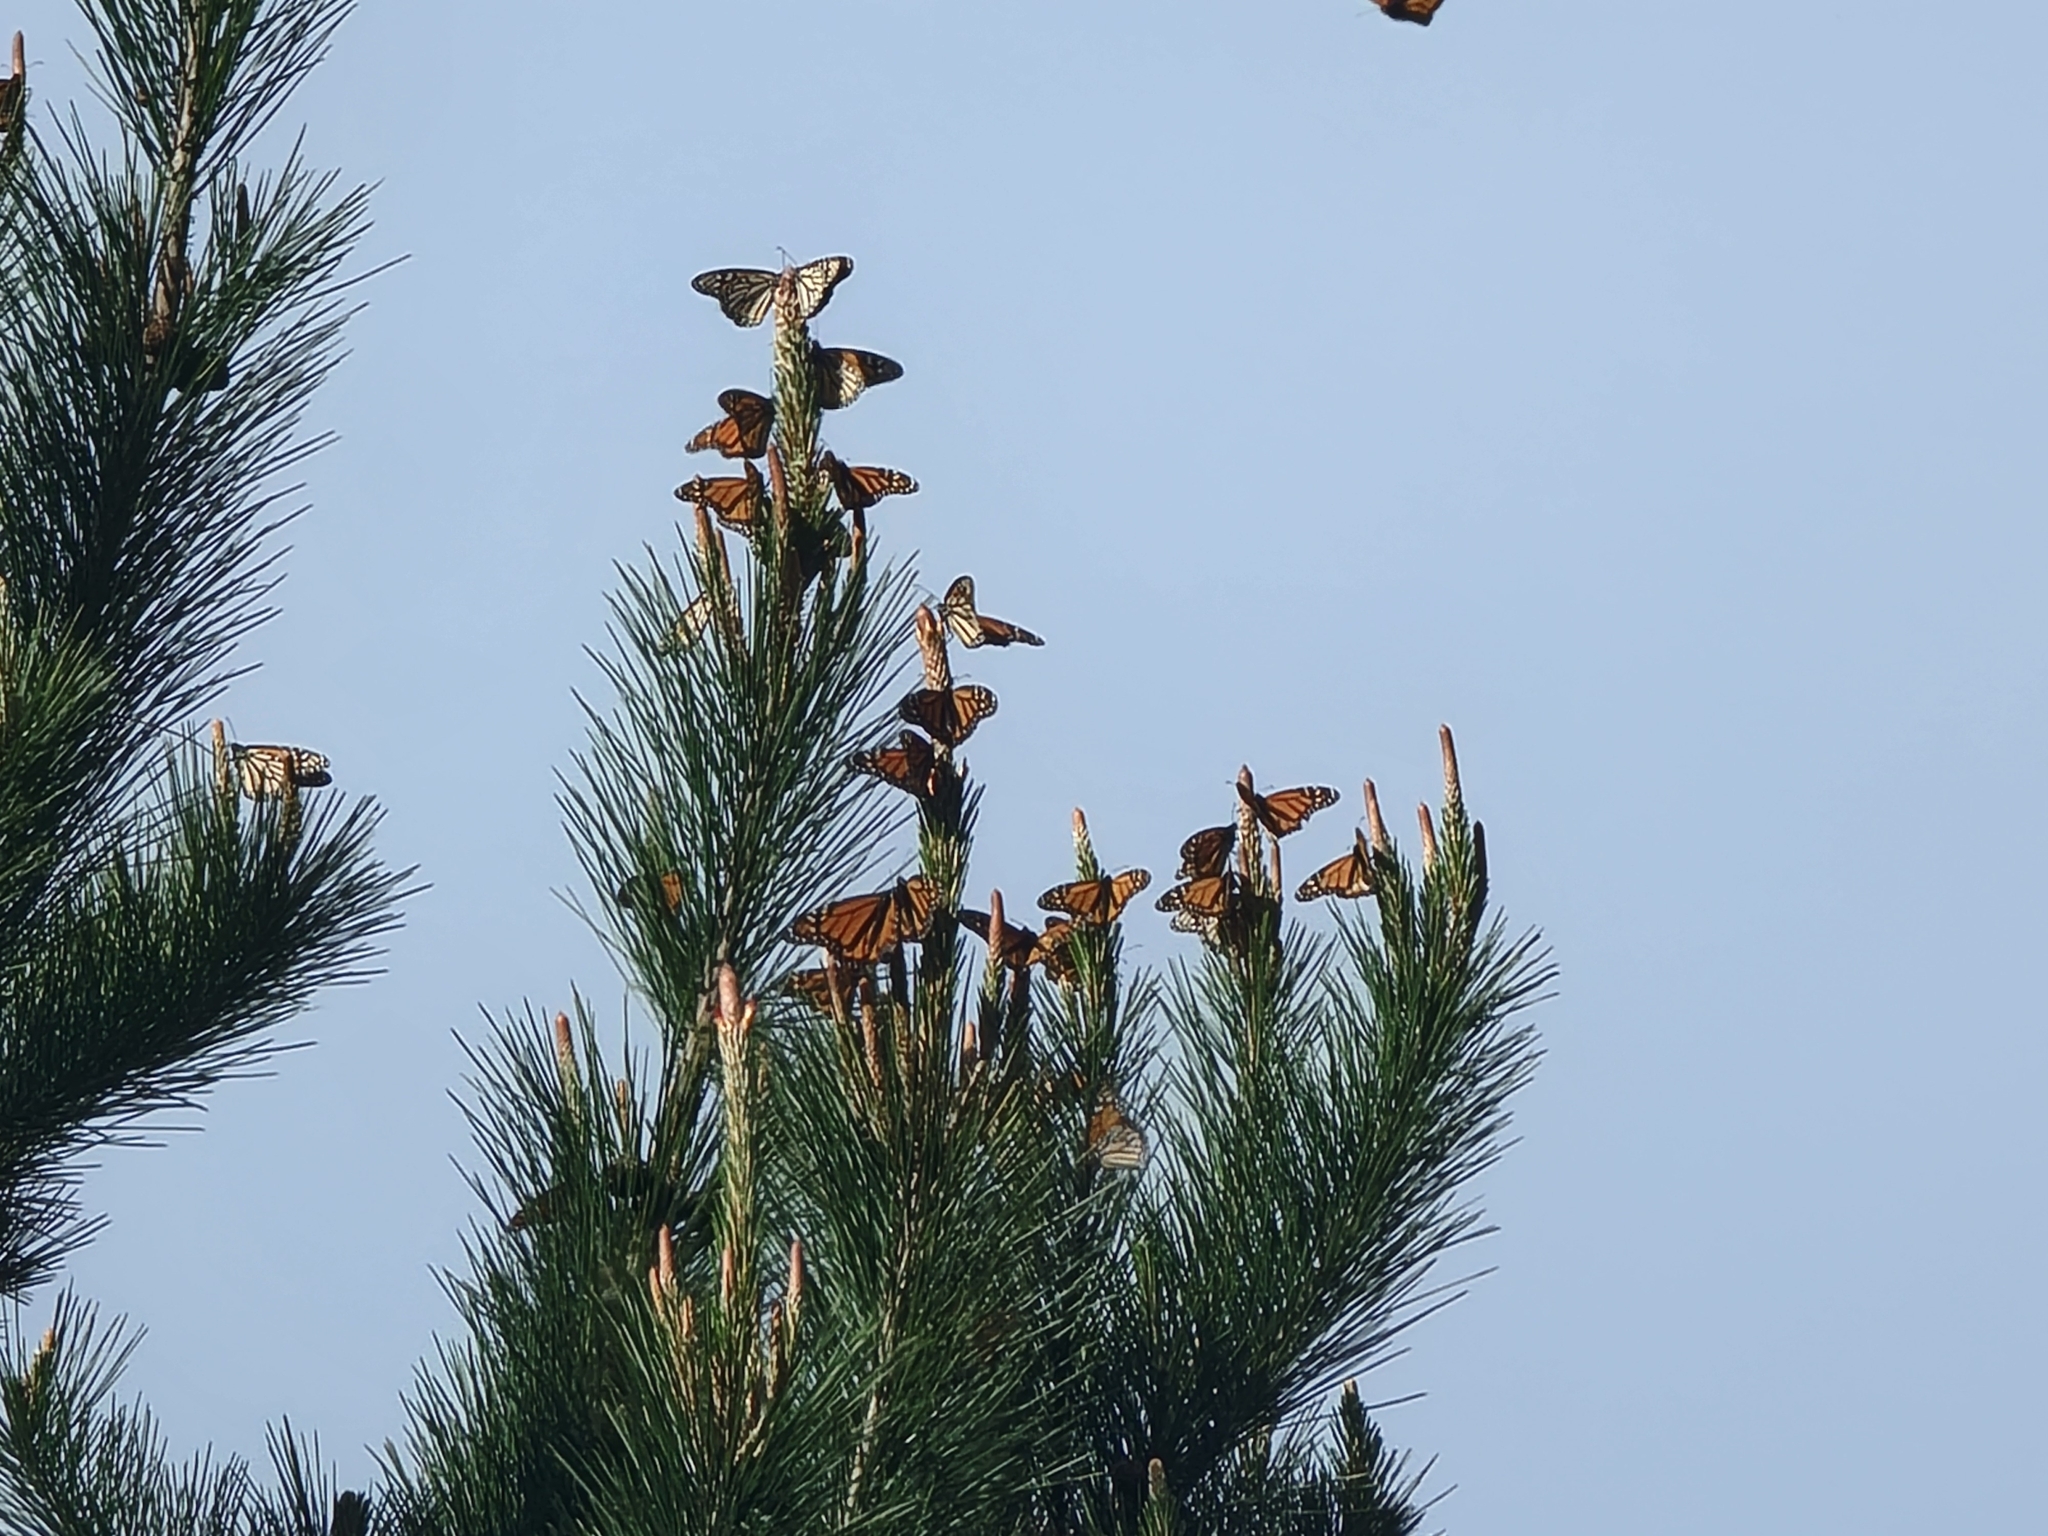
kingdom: Animalia
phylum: Arthropoda
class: Insecta
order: Lepidoptera
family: Nymphalidae
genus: Danaus
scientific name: Danaus plexippus
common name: Monarch
